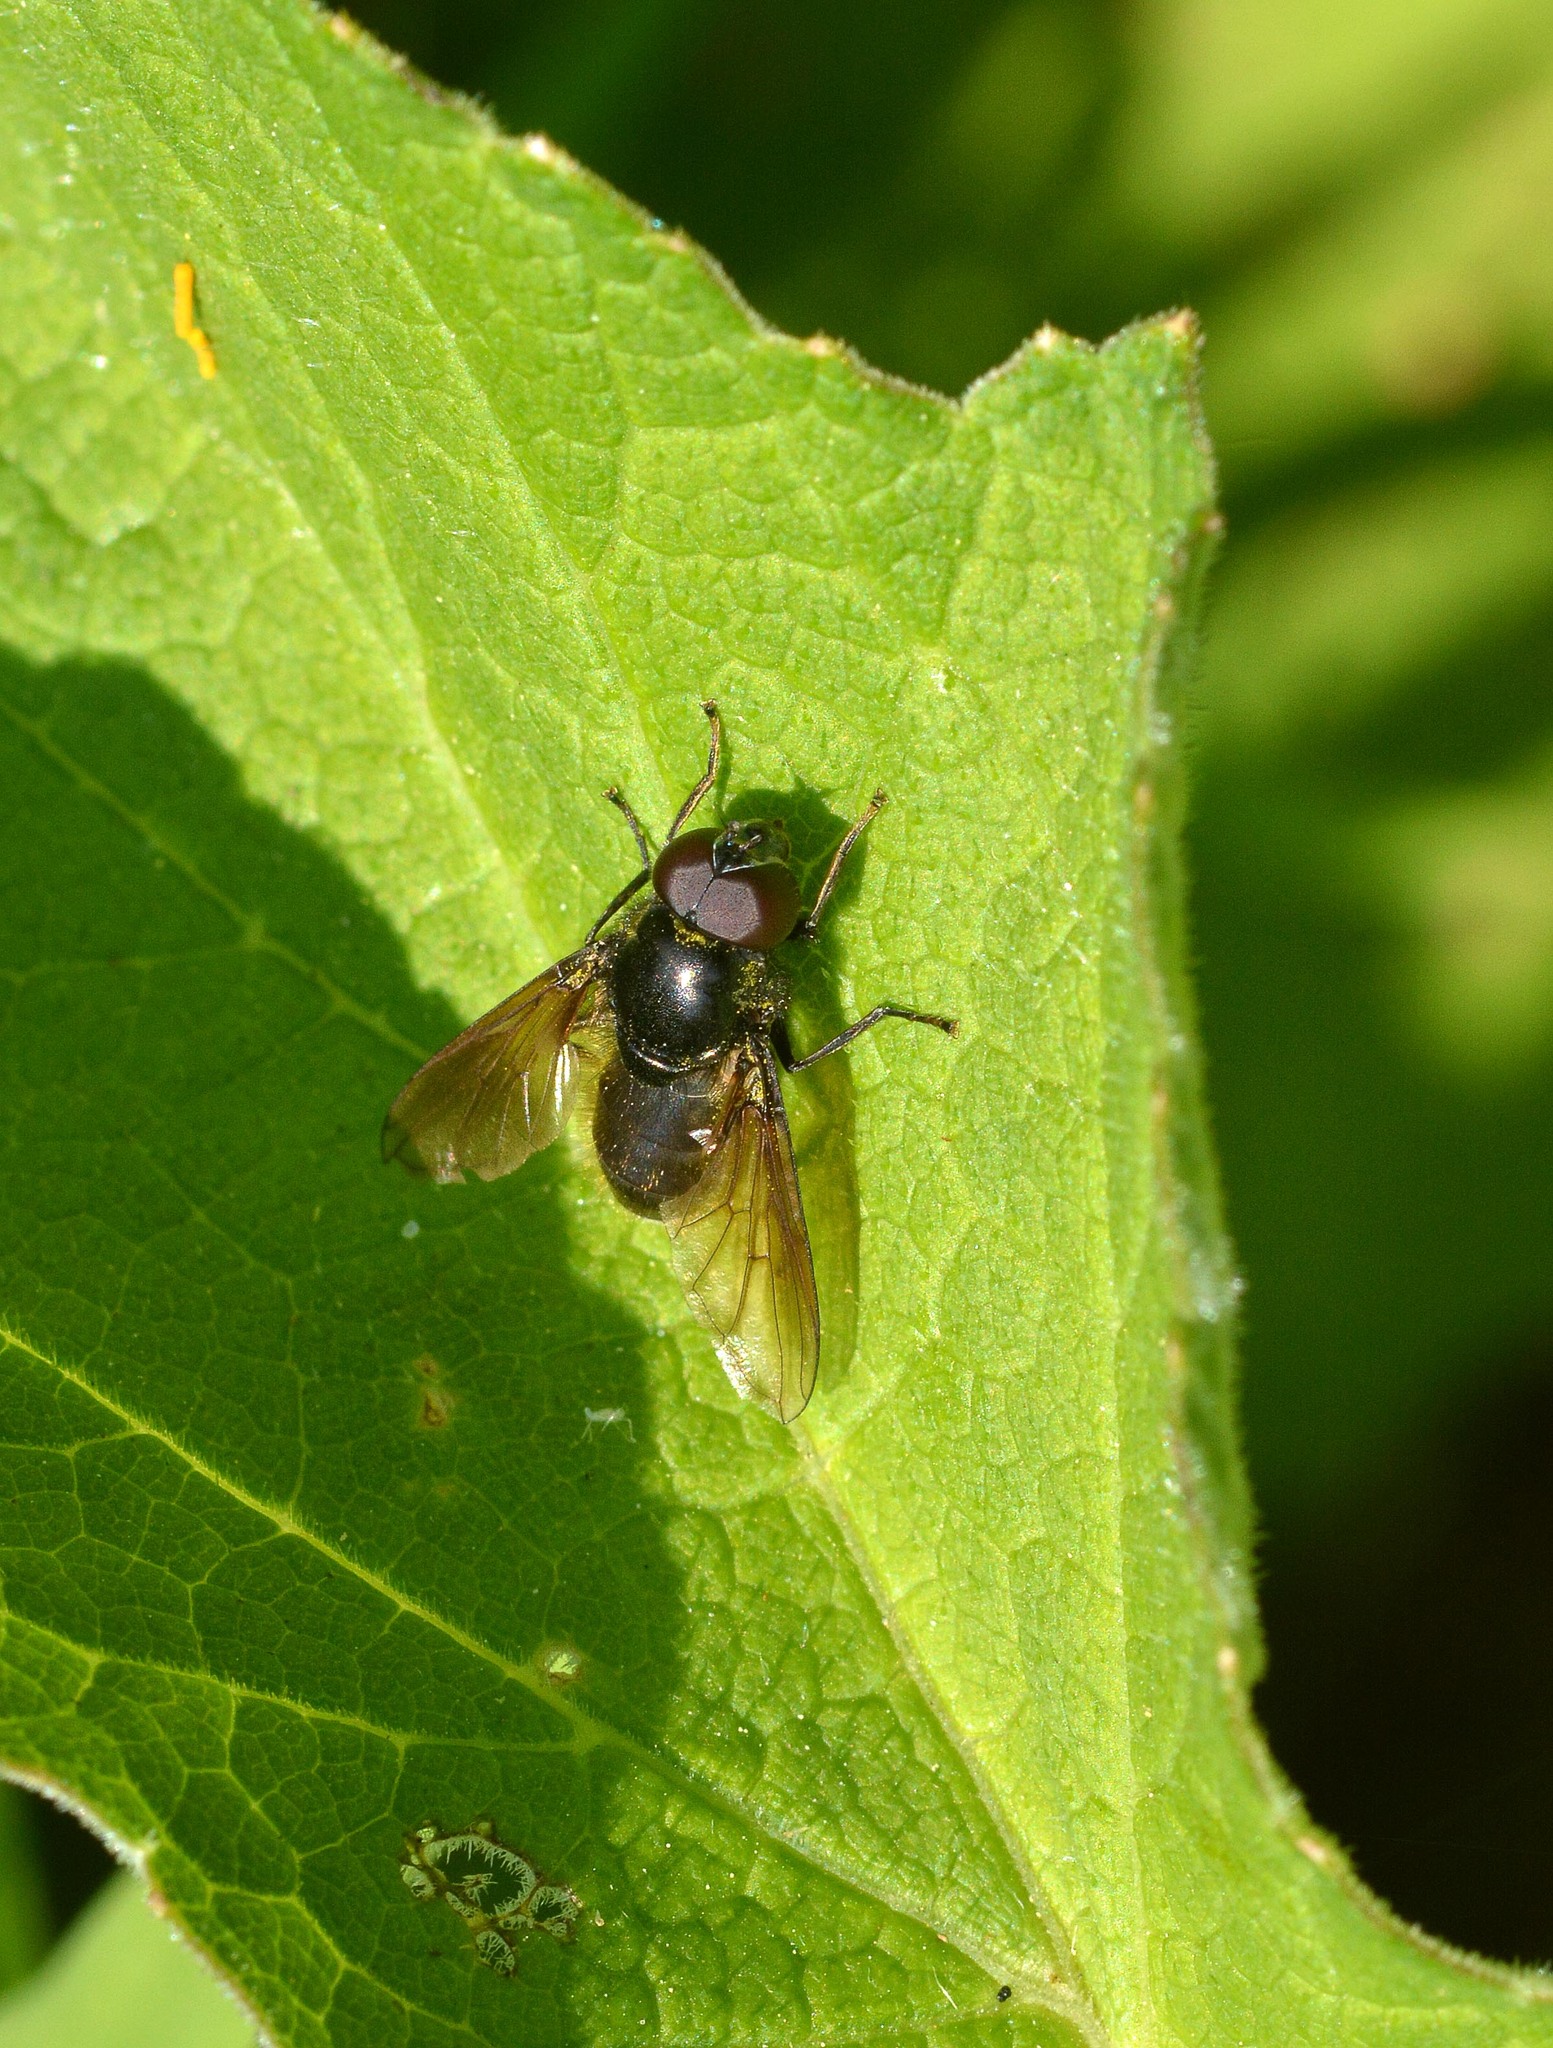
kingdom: Animalia
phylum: Arthropoda
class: Insecta
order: Diptera
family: Syrphidae
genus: Cheilosia
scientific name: Cheilosia
